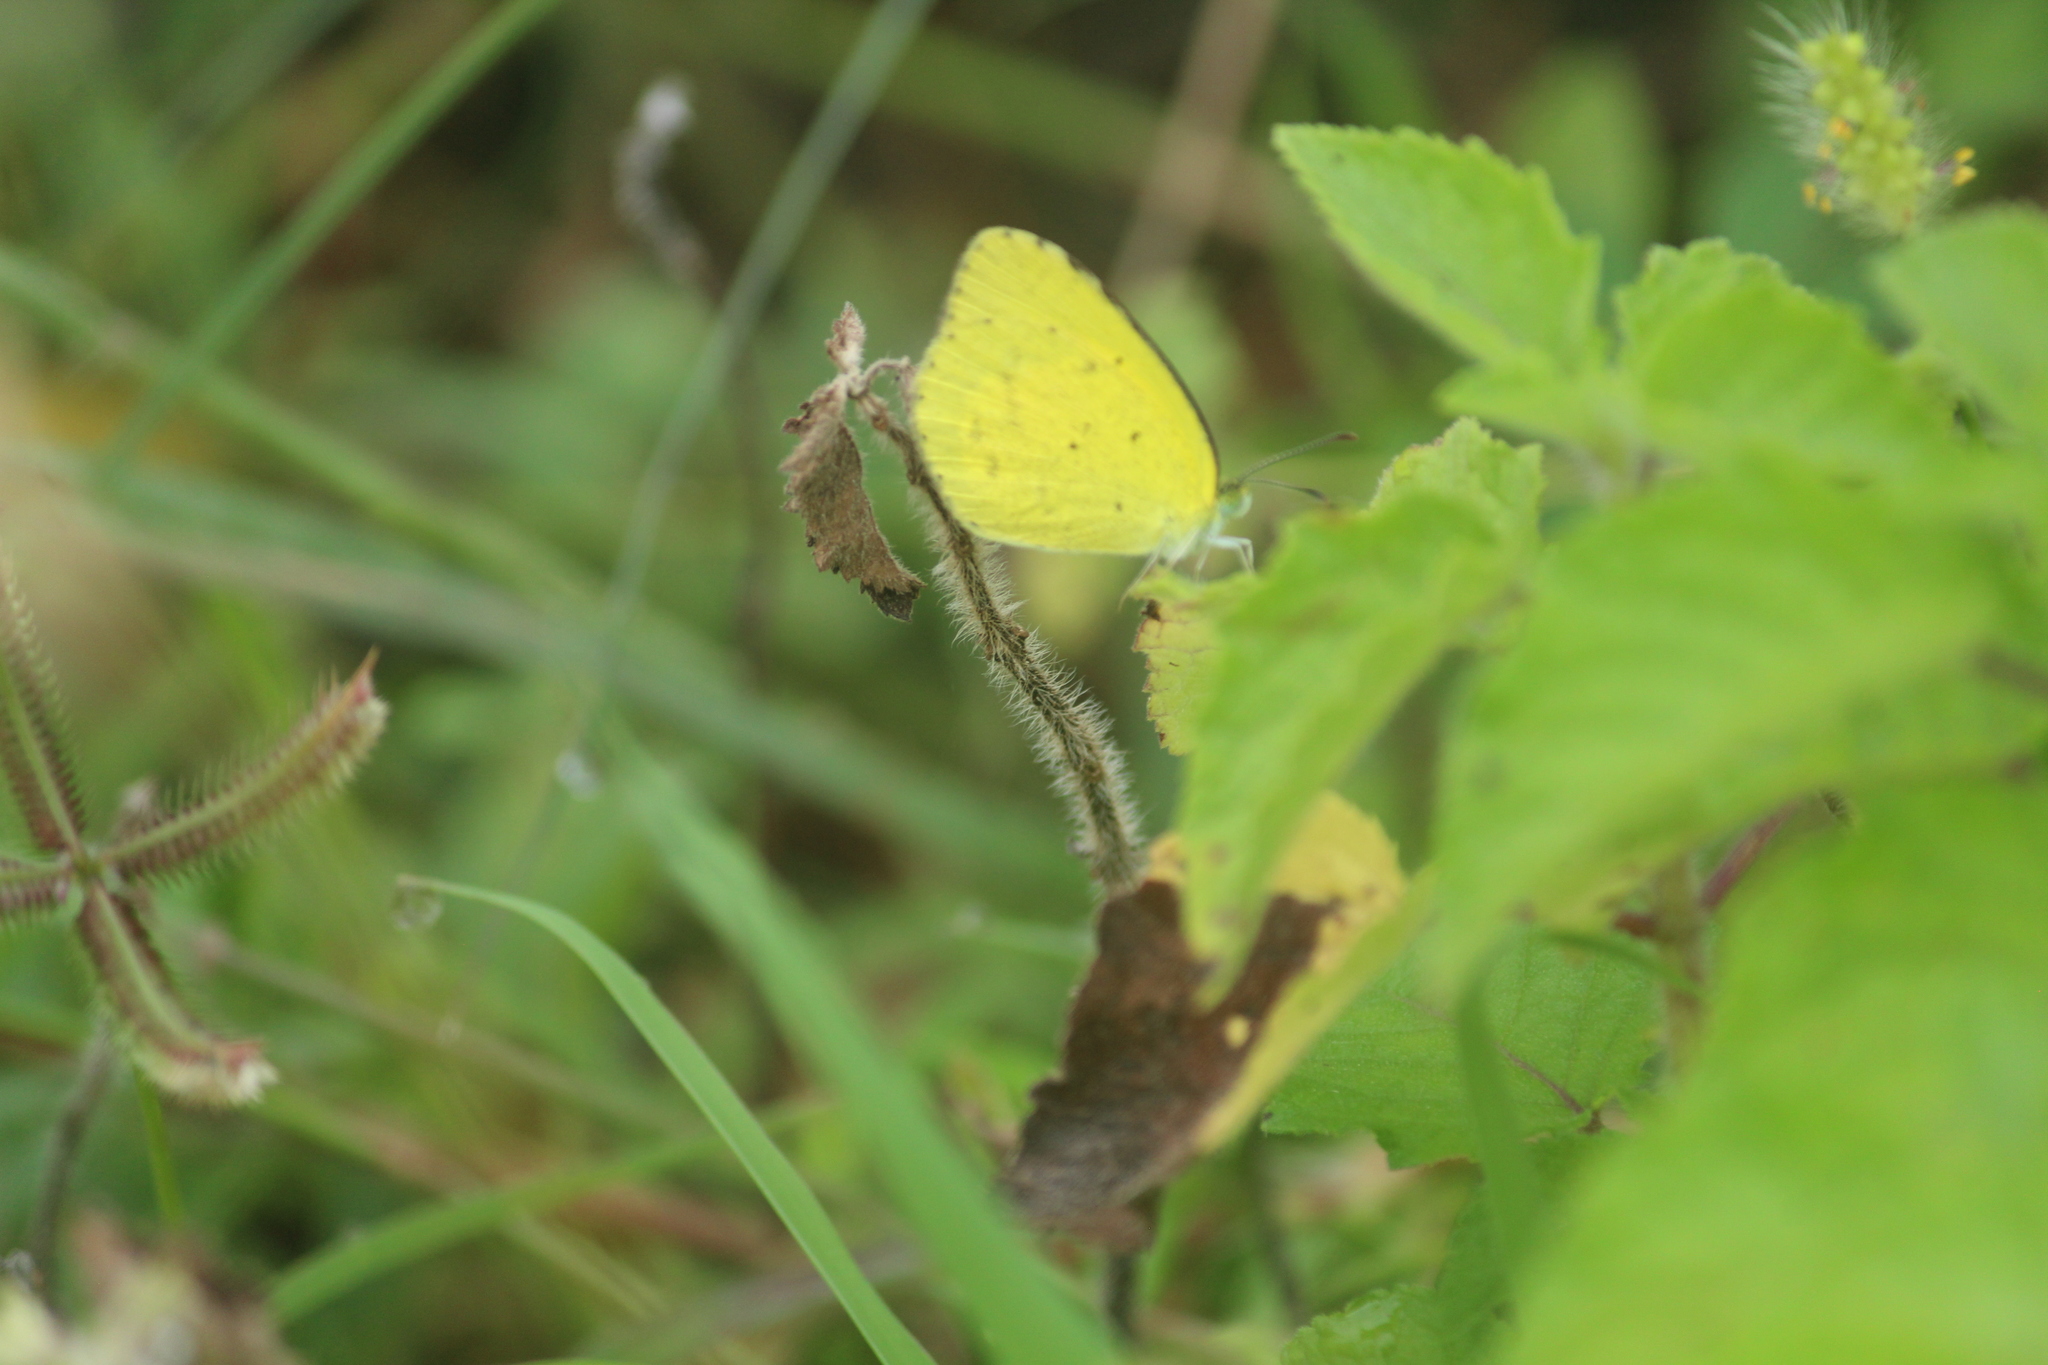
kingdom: Animalia
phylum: Arthropoda
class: Insecta
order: Lepidoptera
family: Pieridae
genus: Eurema
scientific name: Eurema brigitta
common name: Small grass yellow
